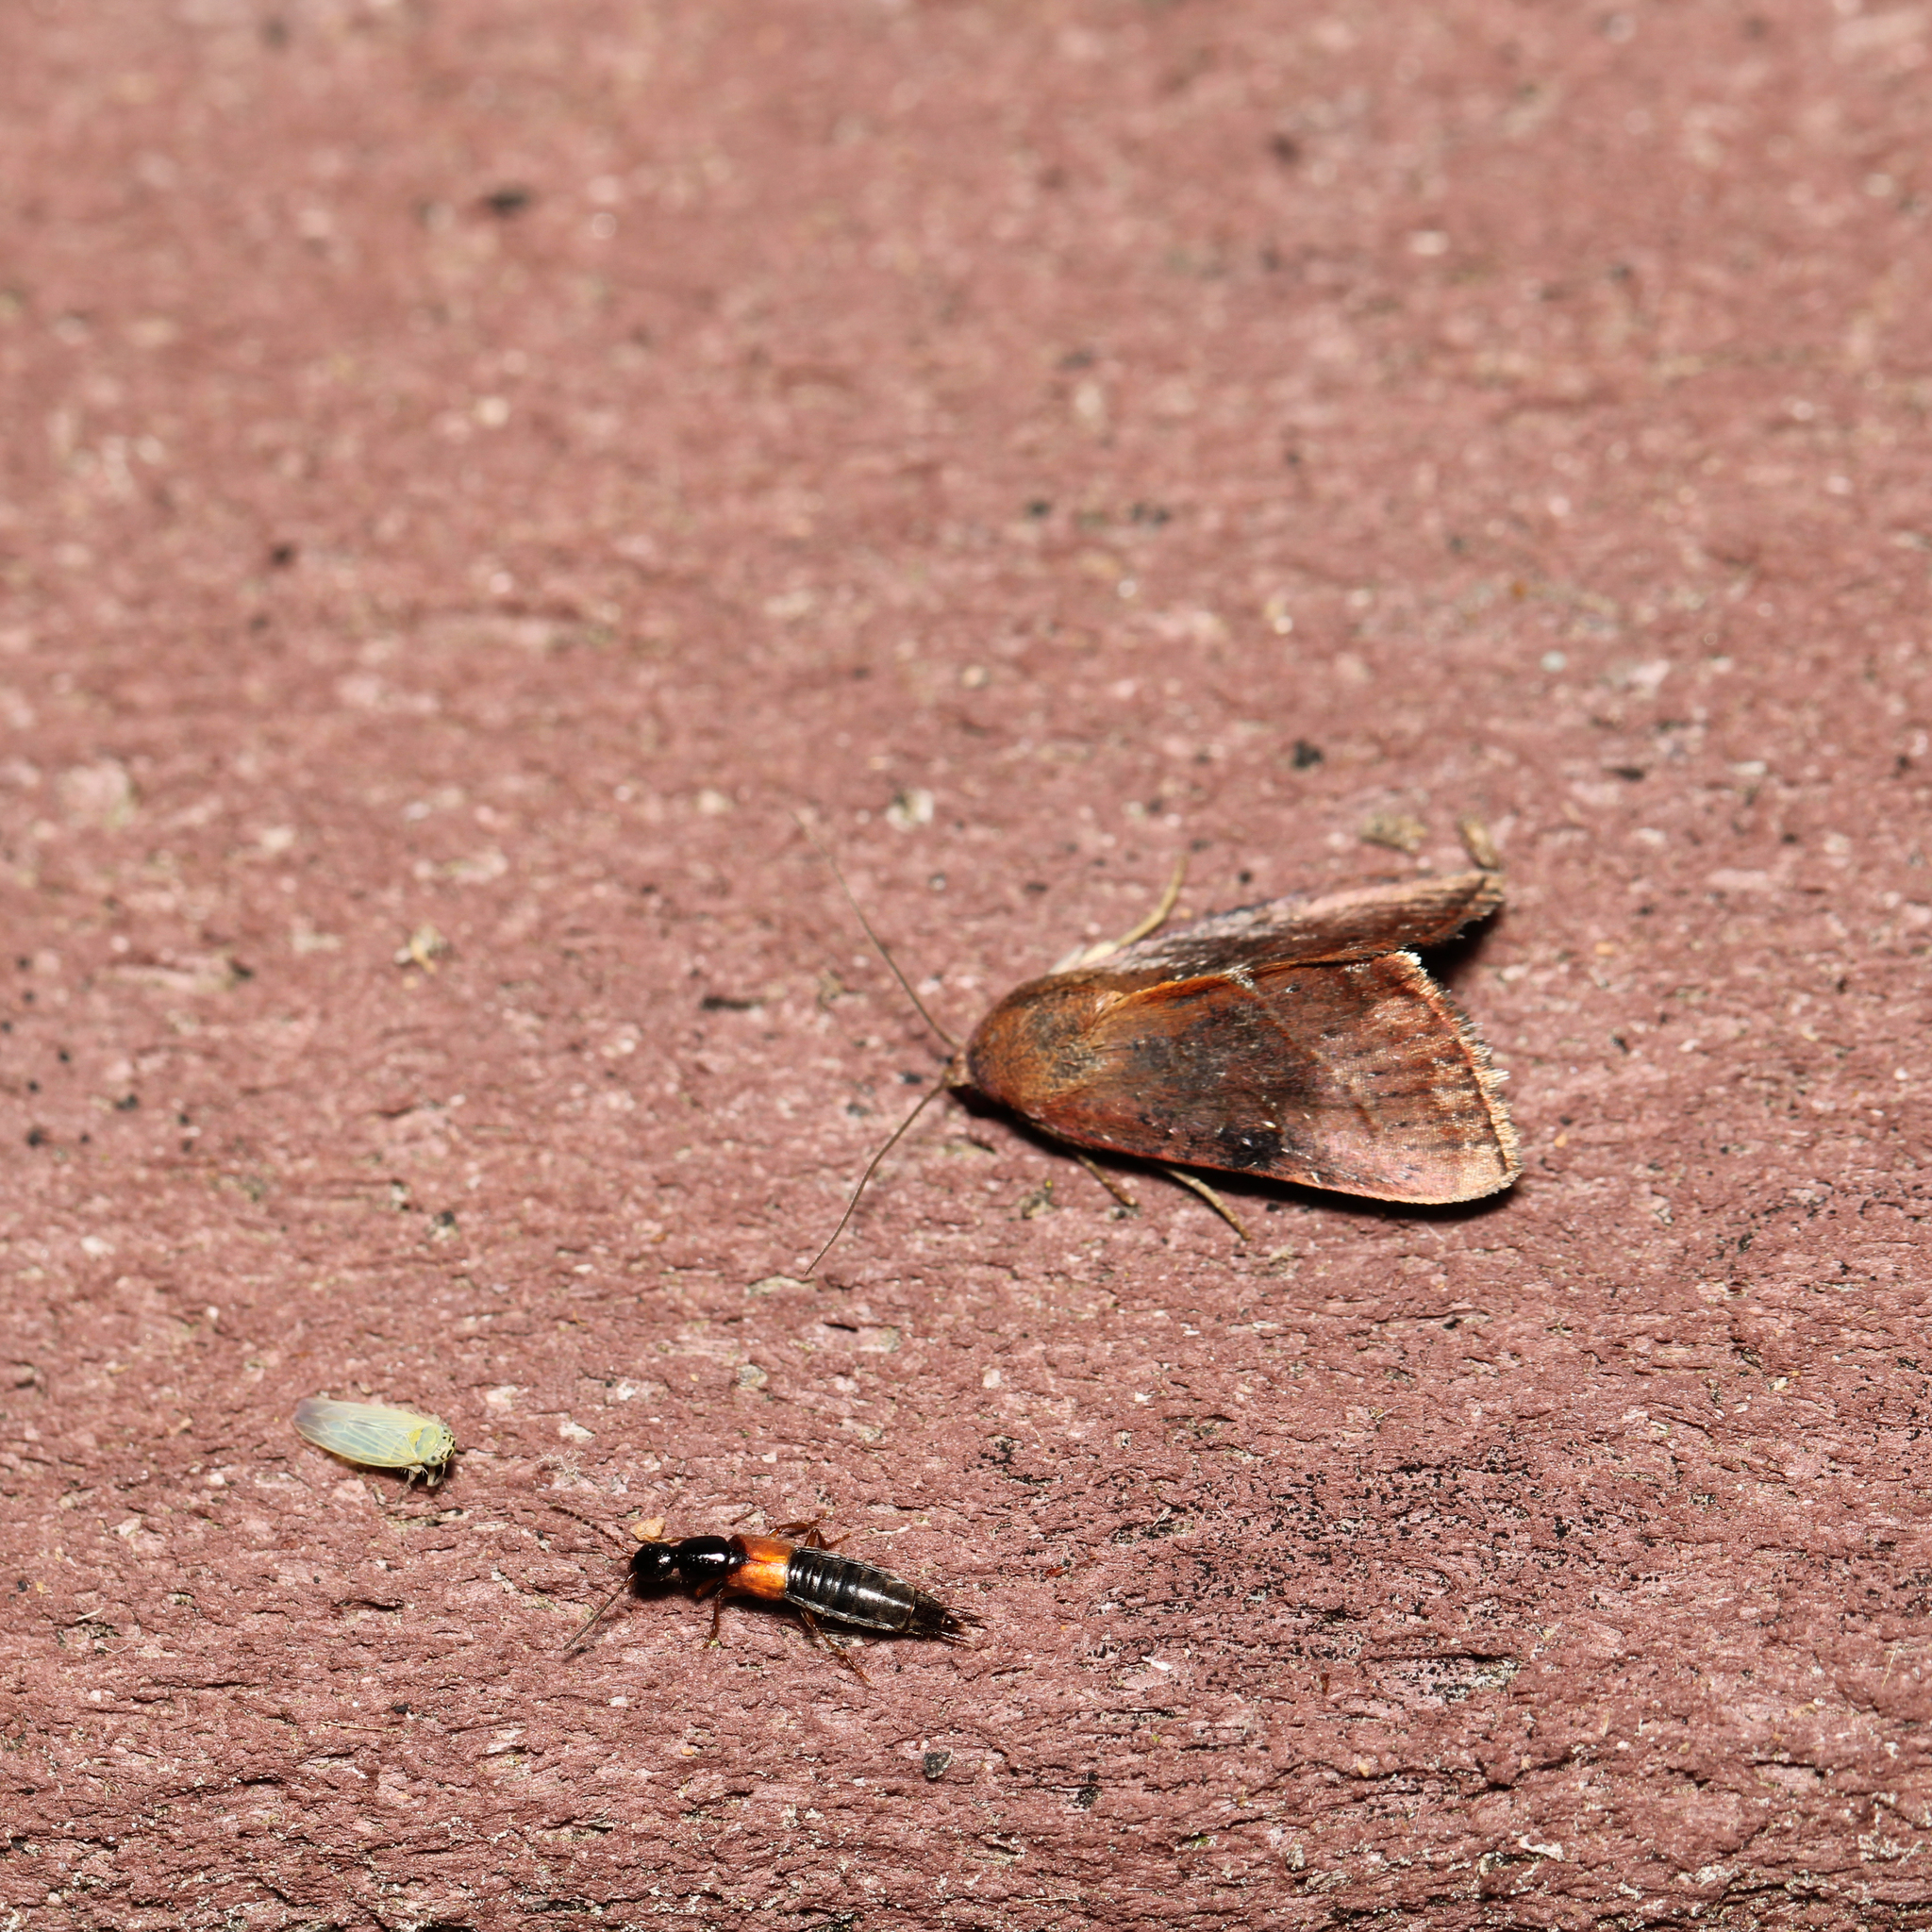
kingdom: Animalia
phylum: Arthropoda
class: Insecta
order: Lepidoptera
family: Noctuidae
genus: Galgula
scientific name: Galgula partita
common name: Wedgeling
